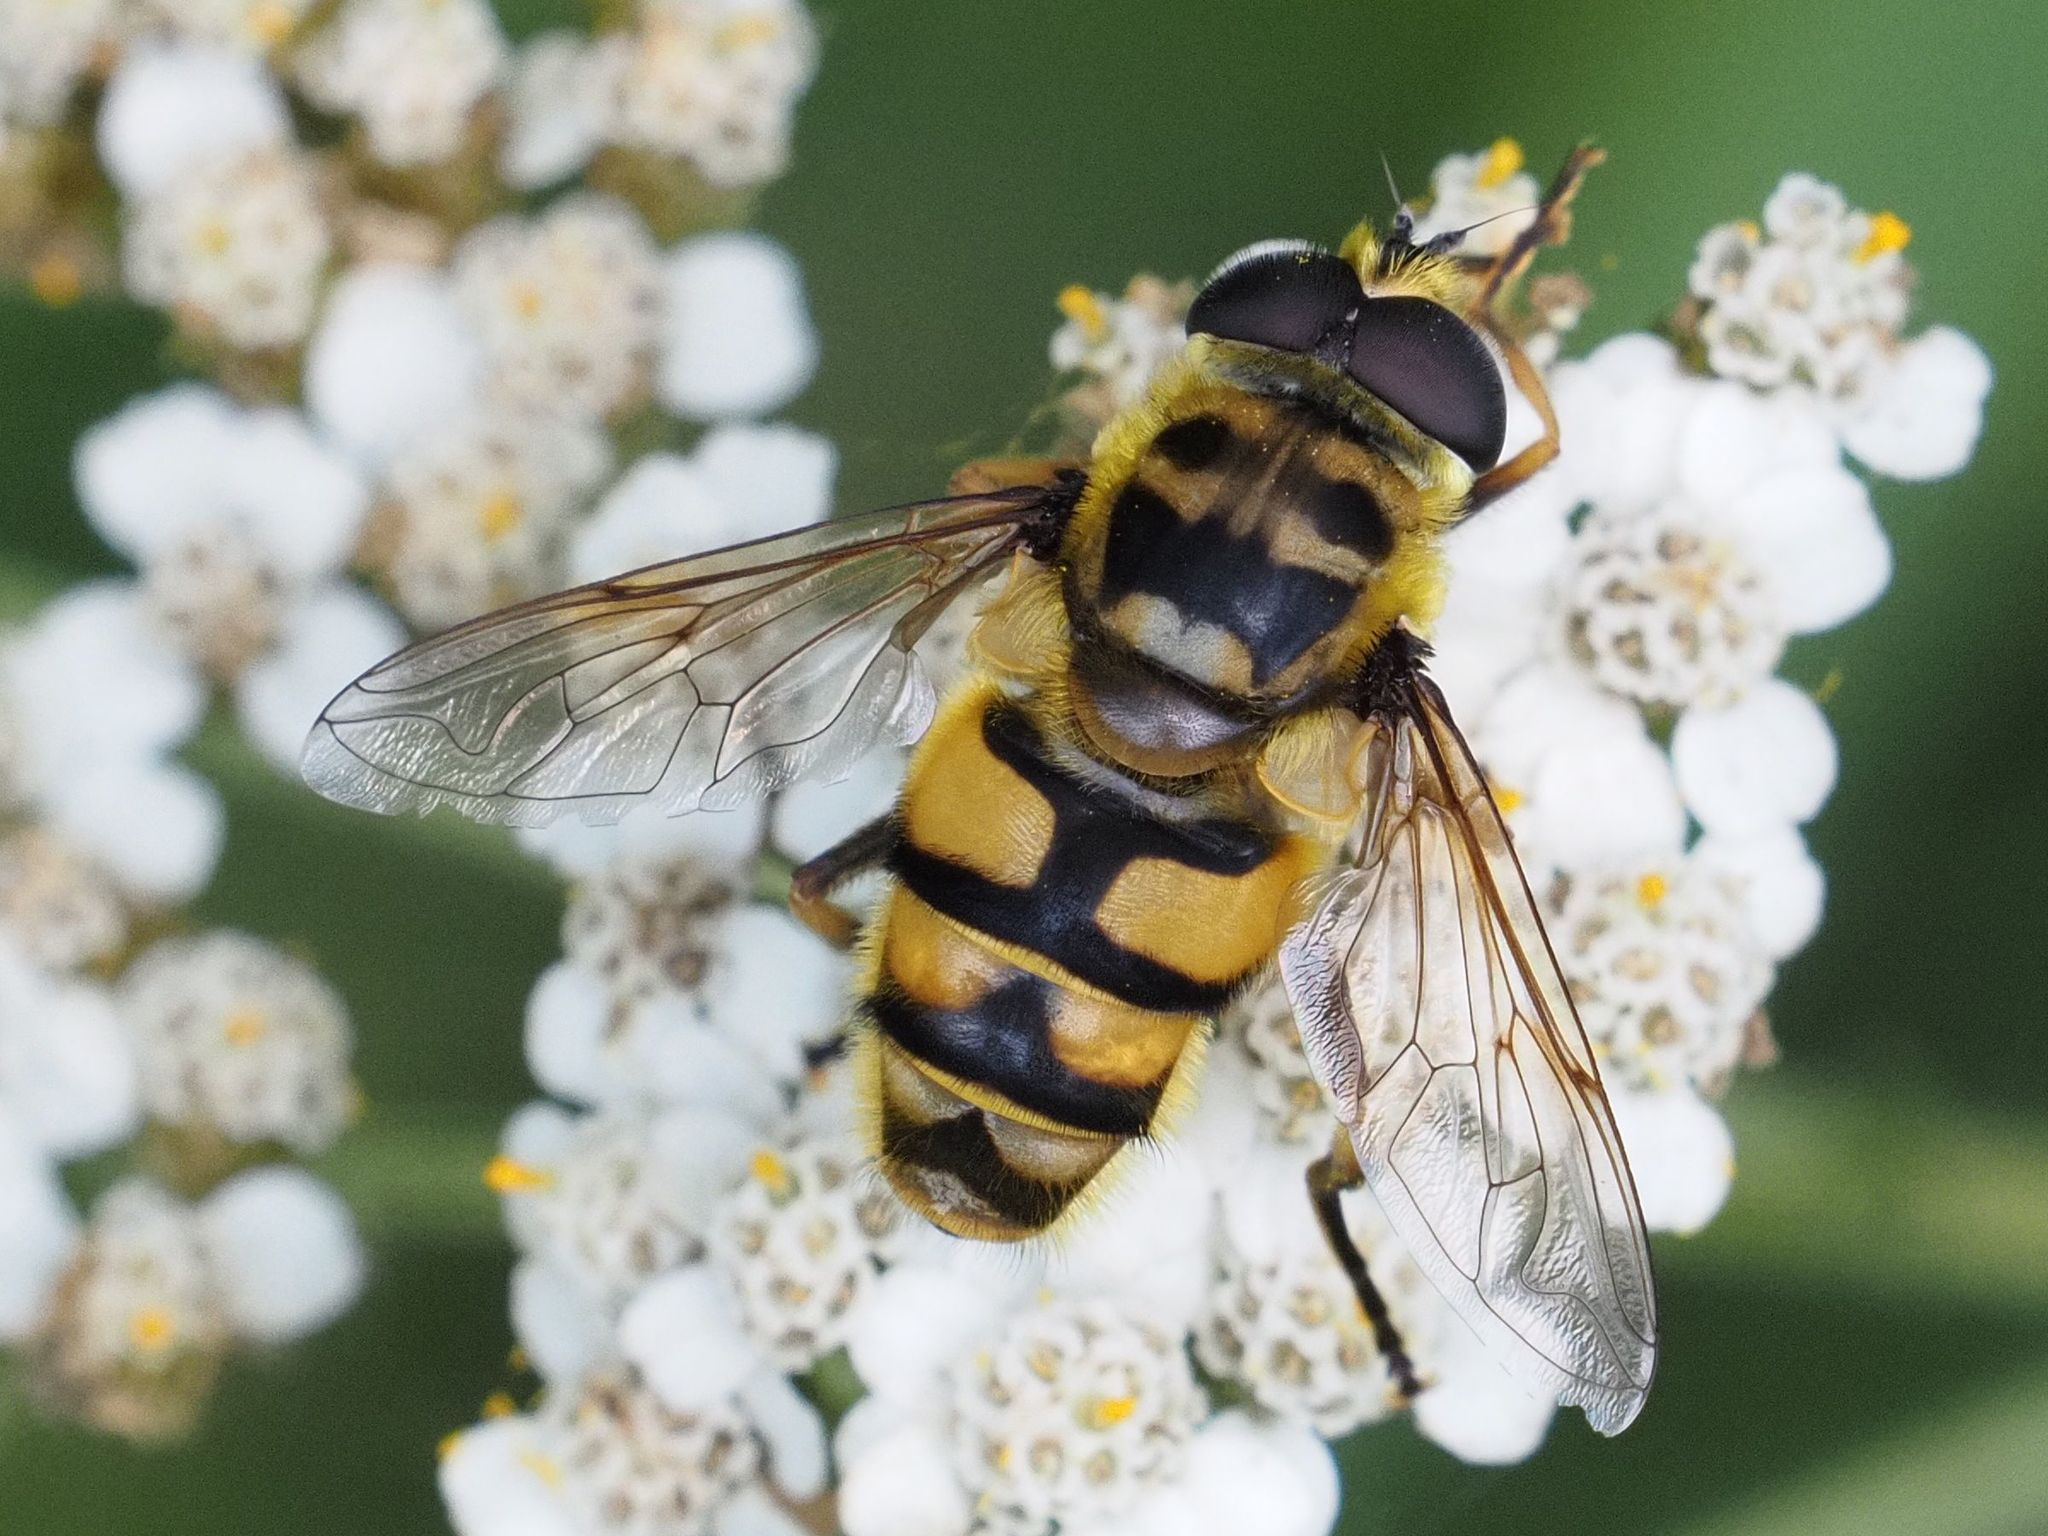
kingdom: Animalia
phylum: Arthropoda
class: Insecta
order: Diptera
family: Syrphidae
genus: Myathropa
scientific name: Myathropa florea
